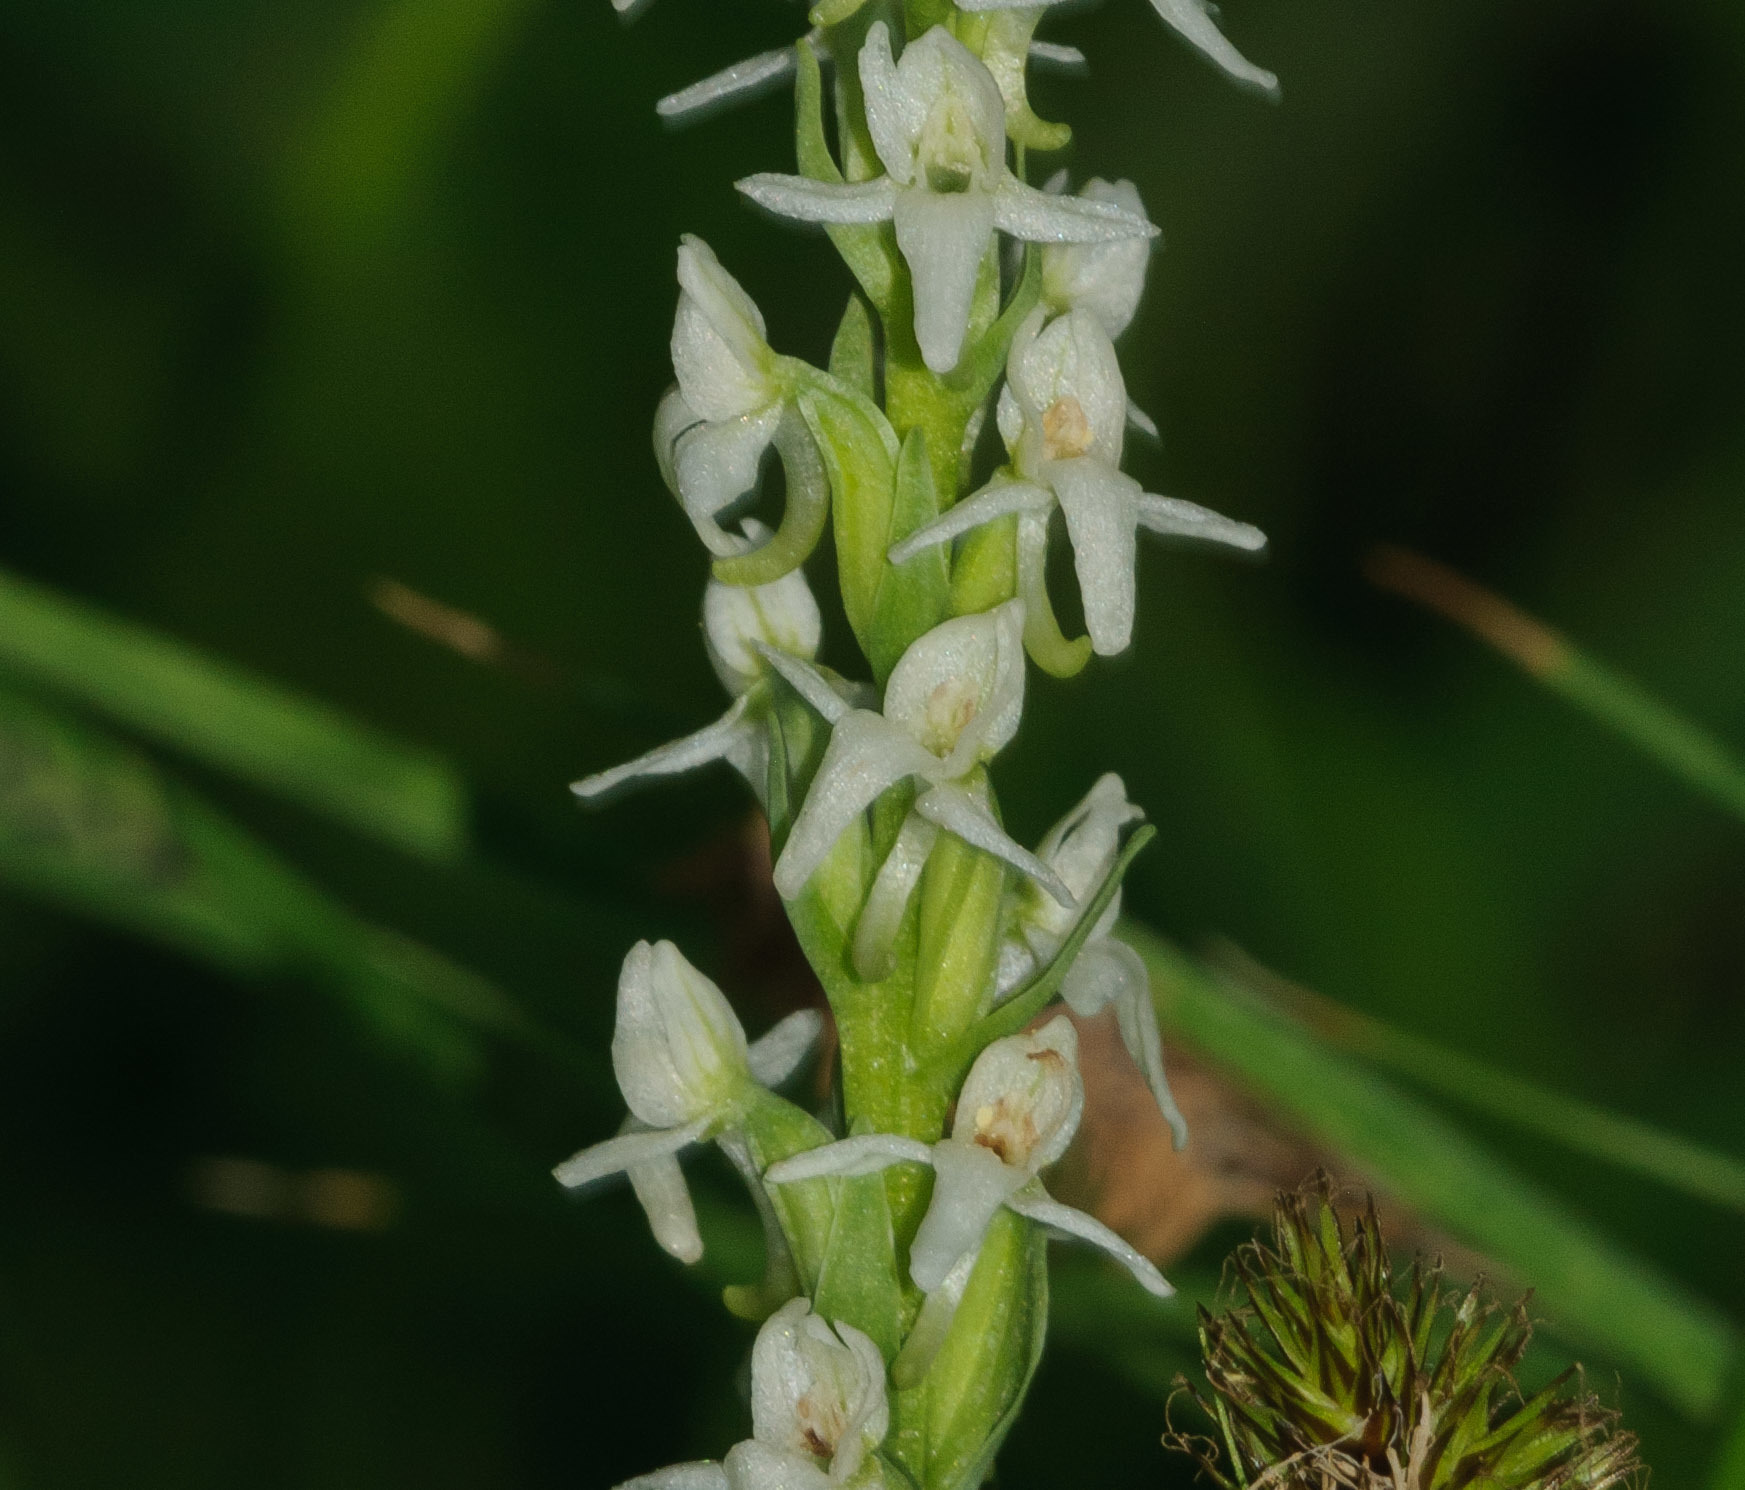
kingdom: Plantae
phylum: Tracheophyta
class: Liliopsida
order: Asparagales
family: Orchidaceae
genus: Platanthera
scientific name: Platanthera dilatata
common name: Bog candles
